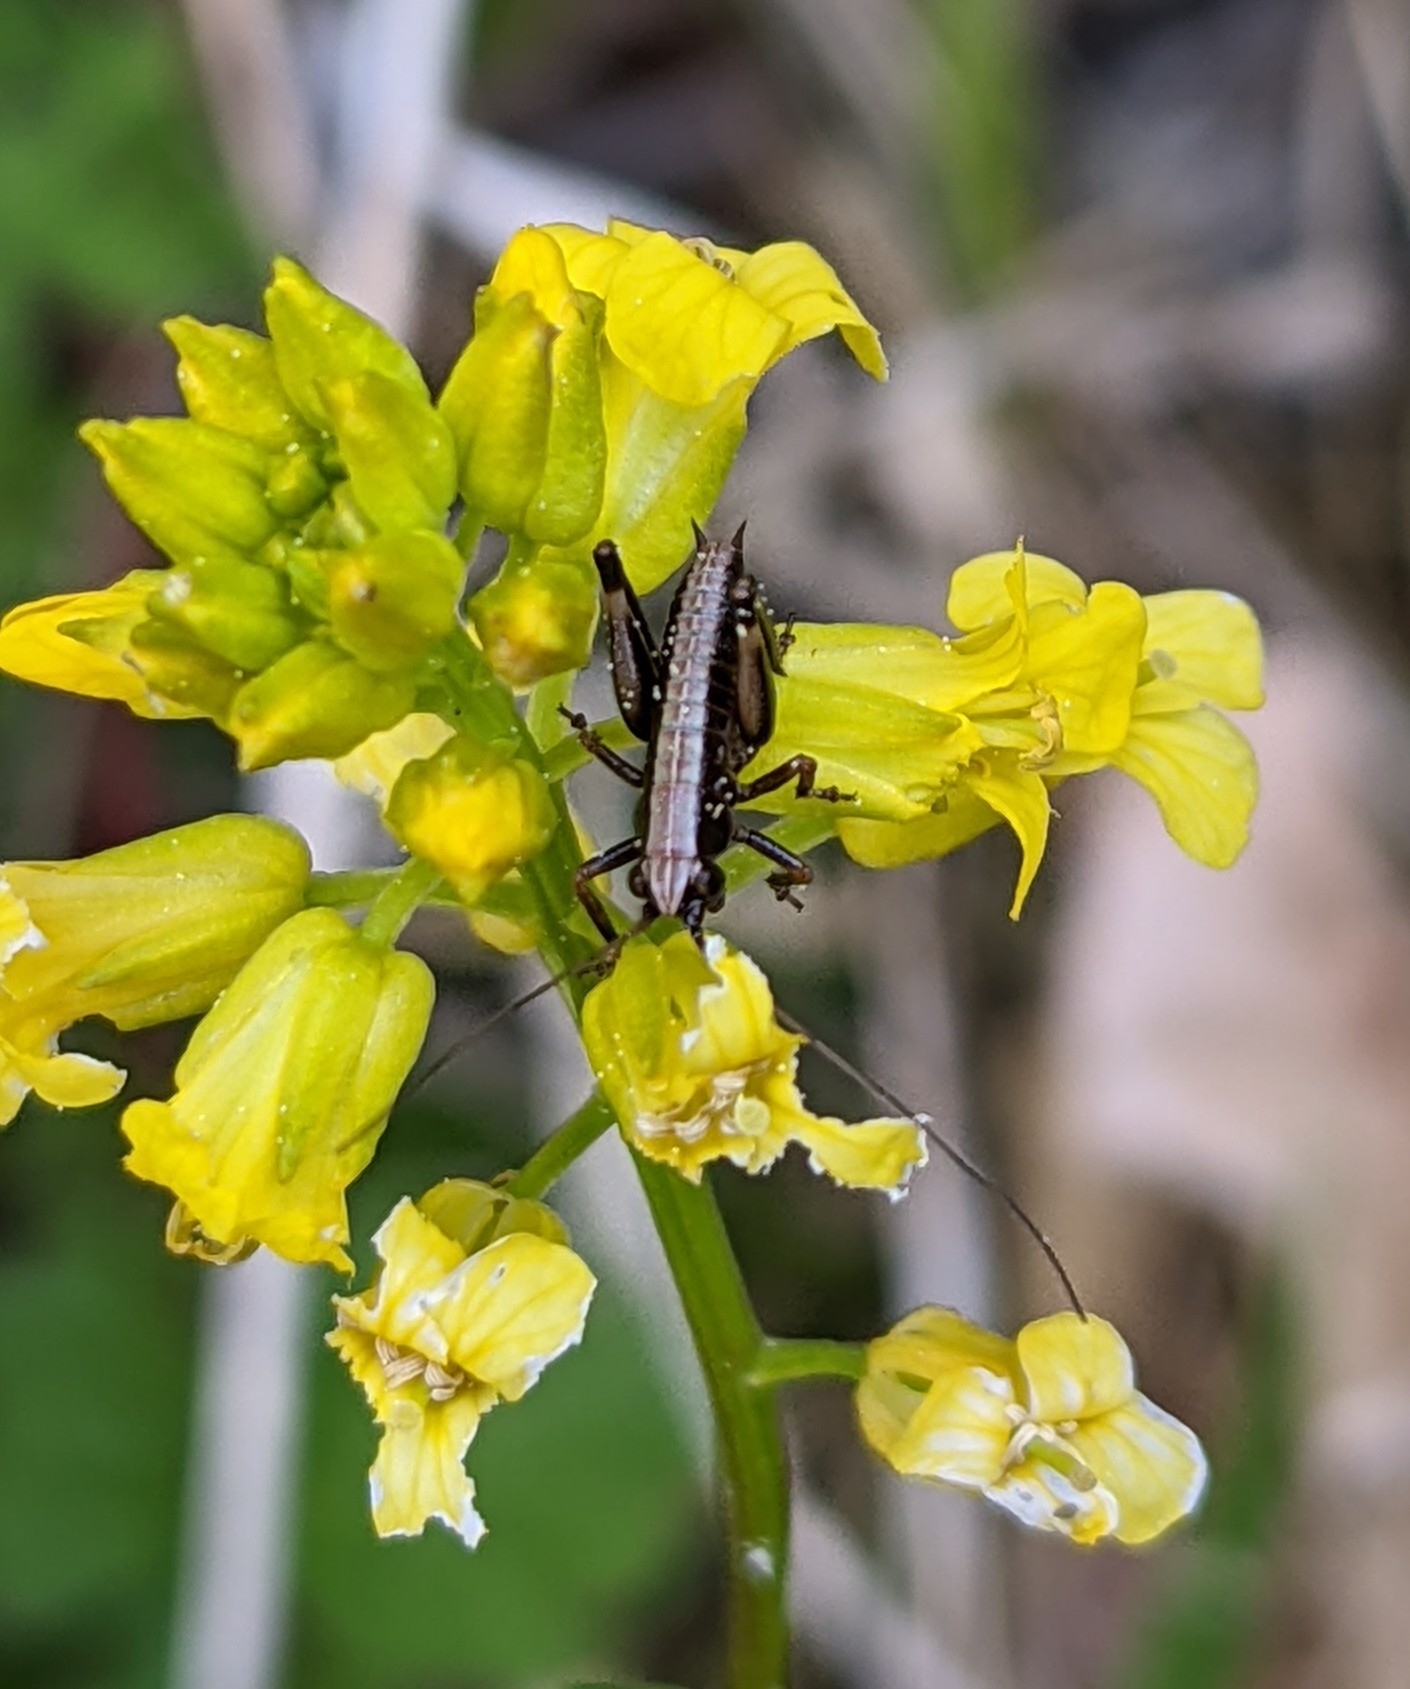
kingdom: Animalia
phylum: Arthropoda
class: Insecta
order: Orthoptera
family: Tettigoniidae
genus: Pholidoptera
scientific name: Pholidoptera griseoaptera
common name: Dark bush-cricket
